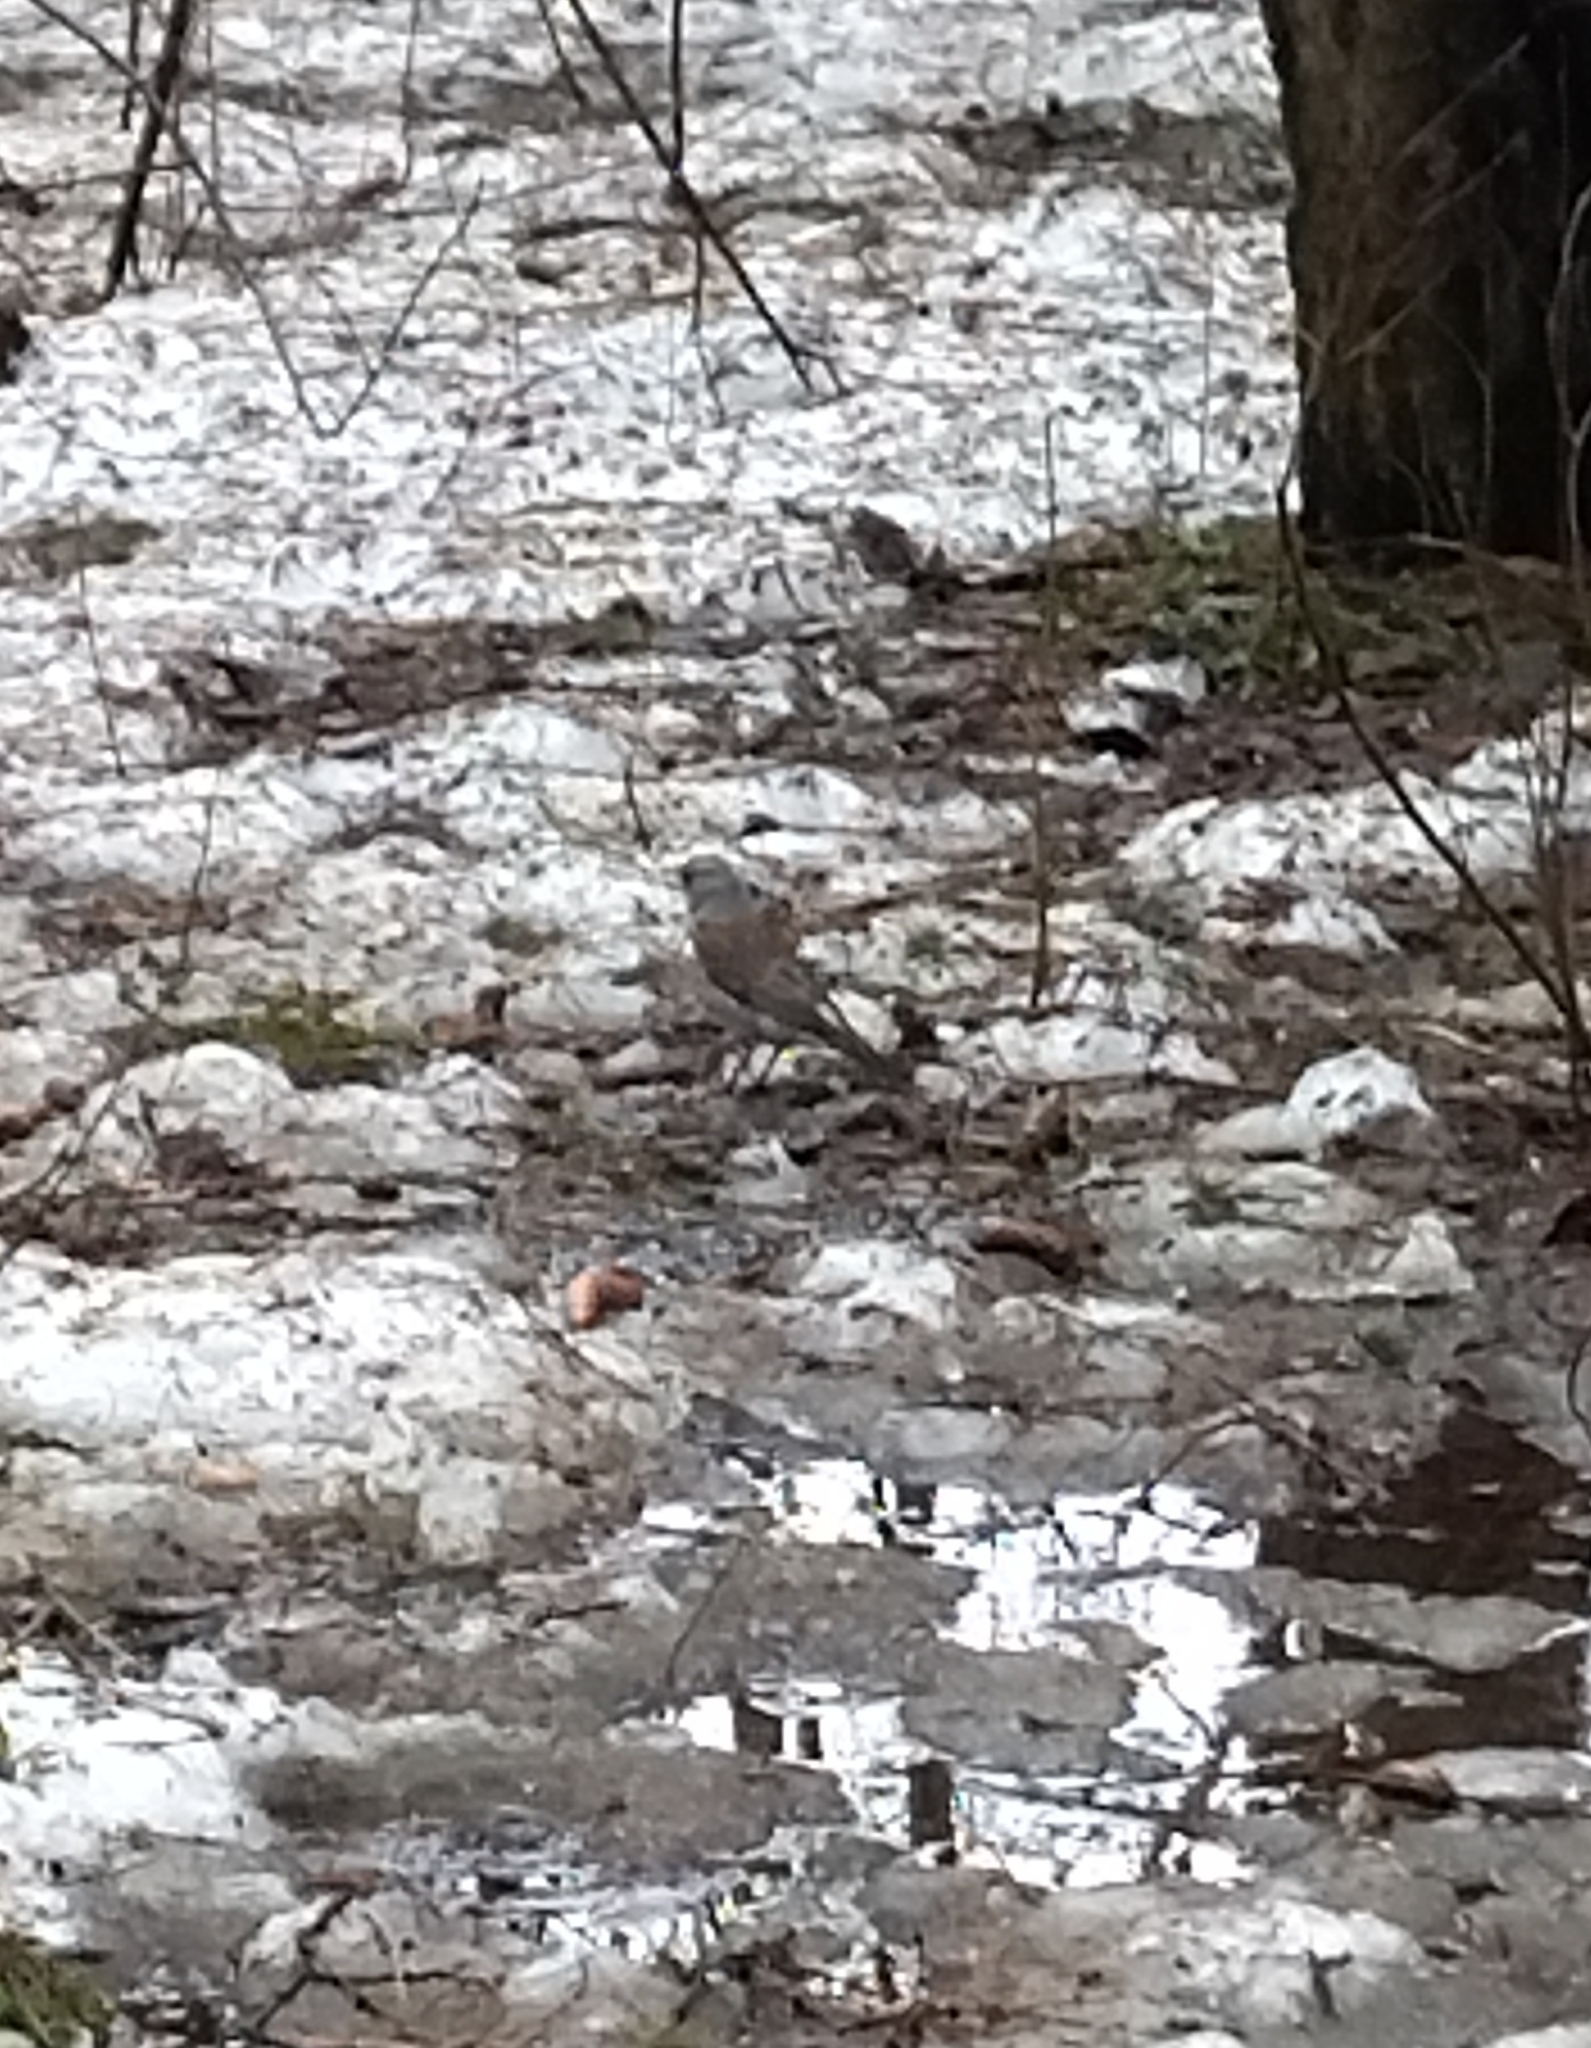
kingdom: Animalia
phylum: Chordata
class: Aves
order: Passeriformes
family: Turdidae
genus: Turdus
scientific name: Turdus pilaris
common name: Fieldfare
